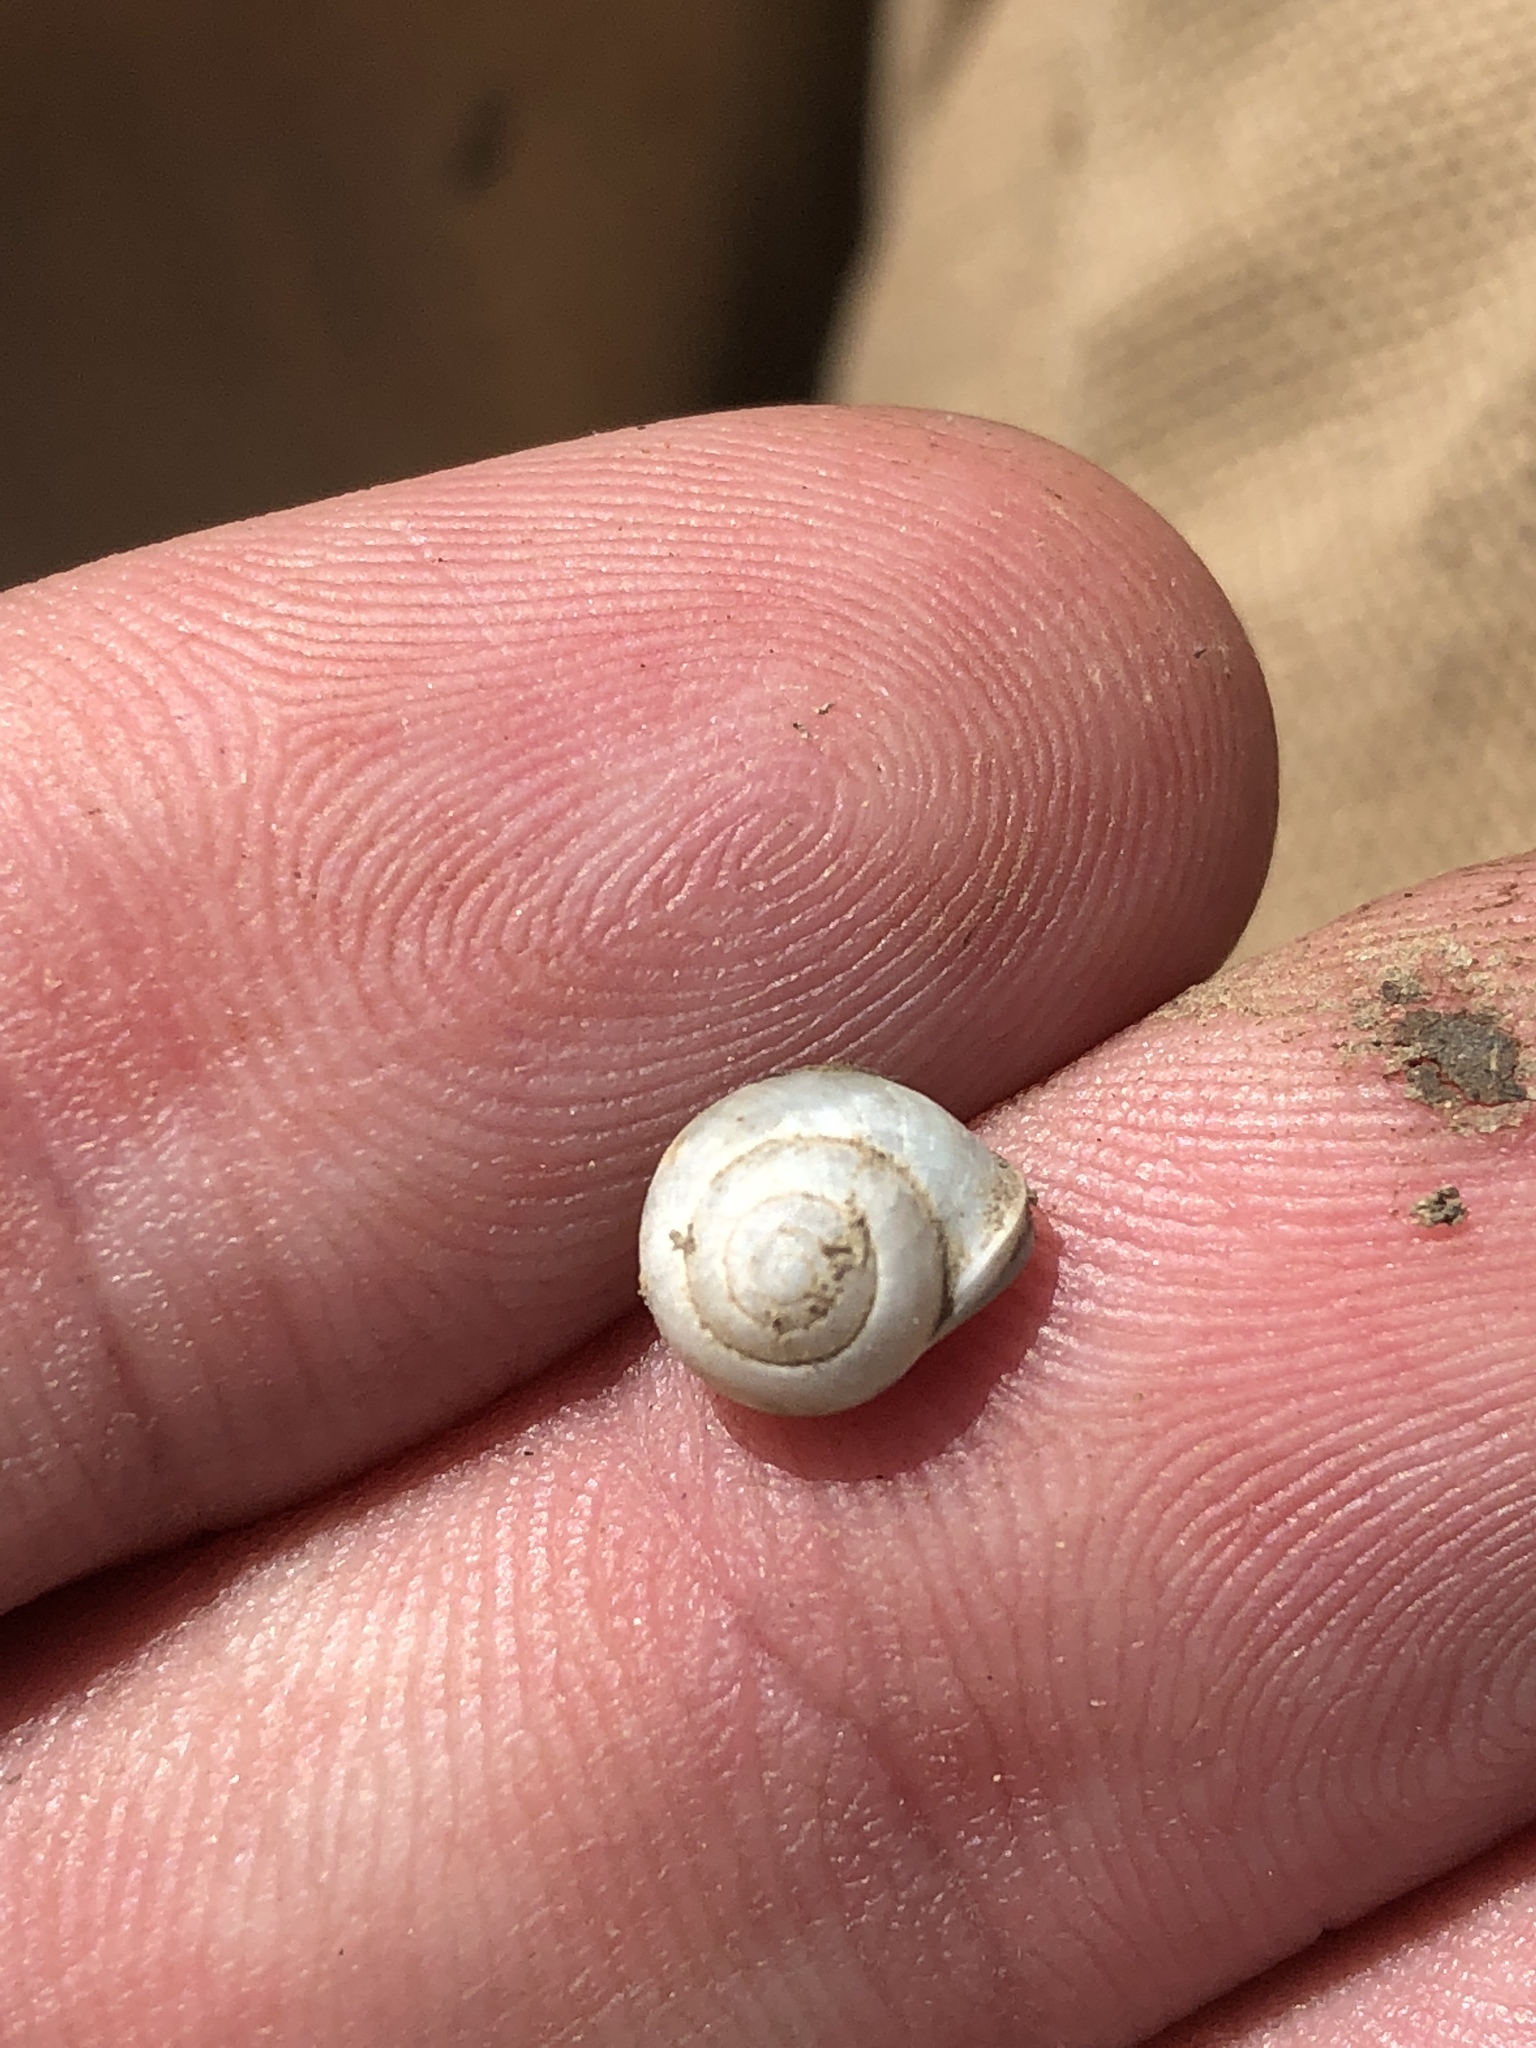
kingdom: Animalia
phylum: Mollusca
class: Gastropoda
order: Cycloneritida
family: Helicinidae
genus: Helicina
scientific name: Helicina orbiculata
